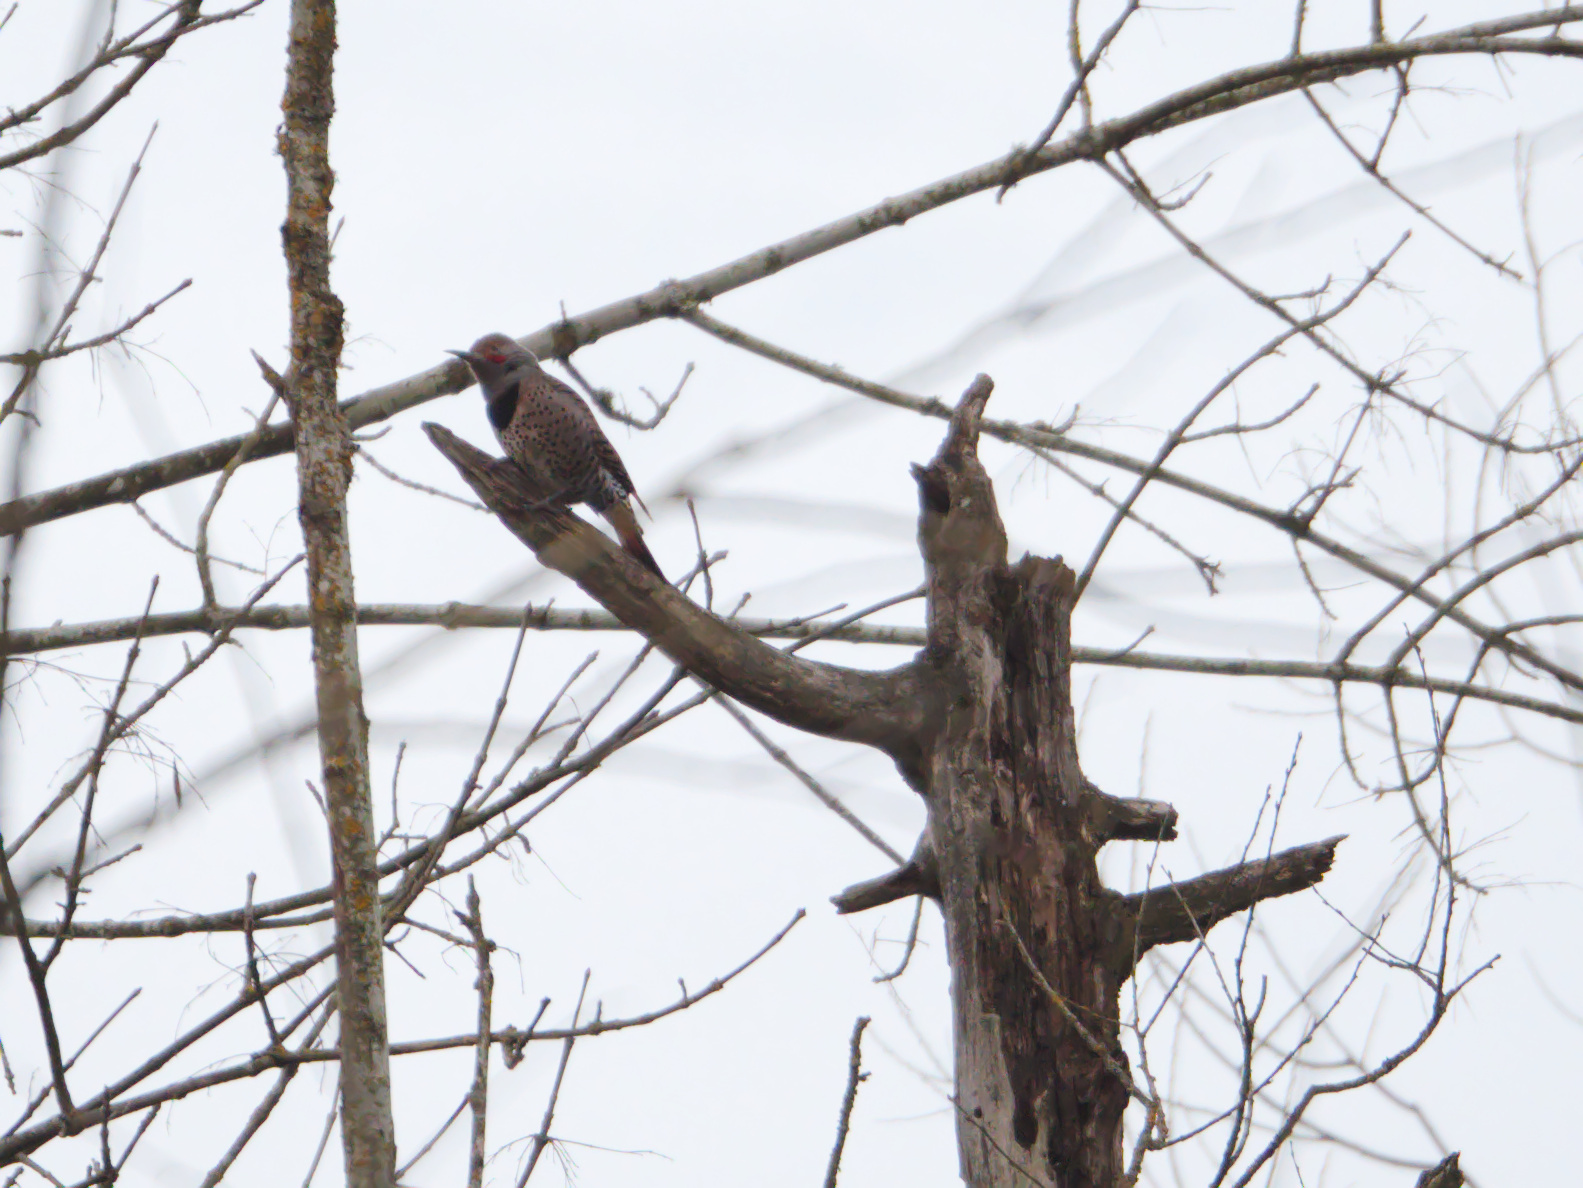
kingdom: Animalia
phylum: Chordata
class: Aves
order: Piciformes
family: Picidae
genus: Colaptes
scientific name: Colaptes auratus
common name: Northern flicker
